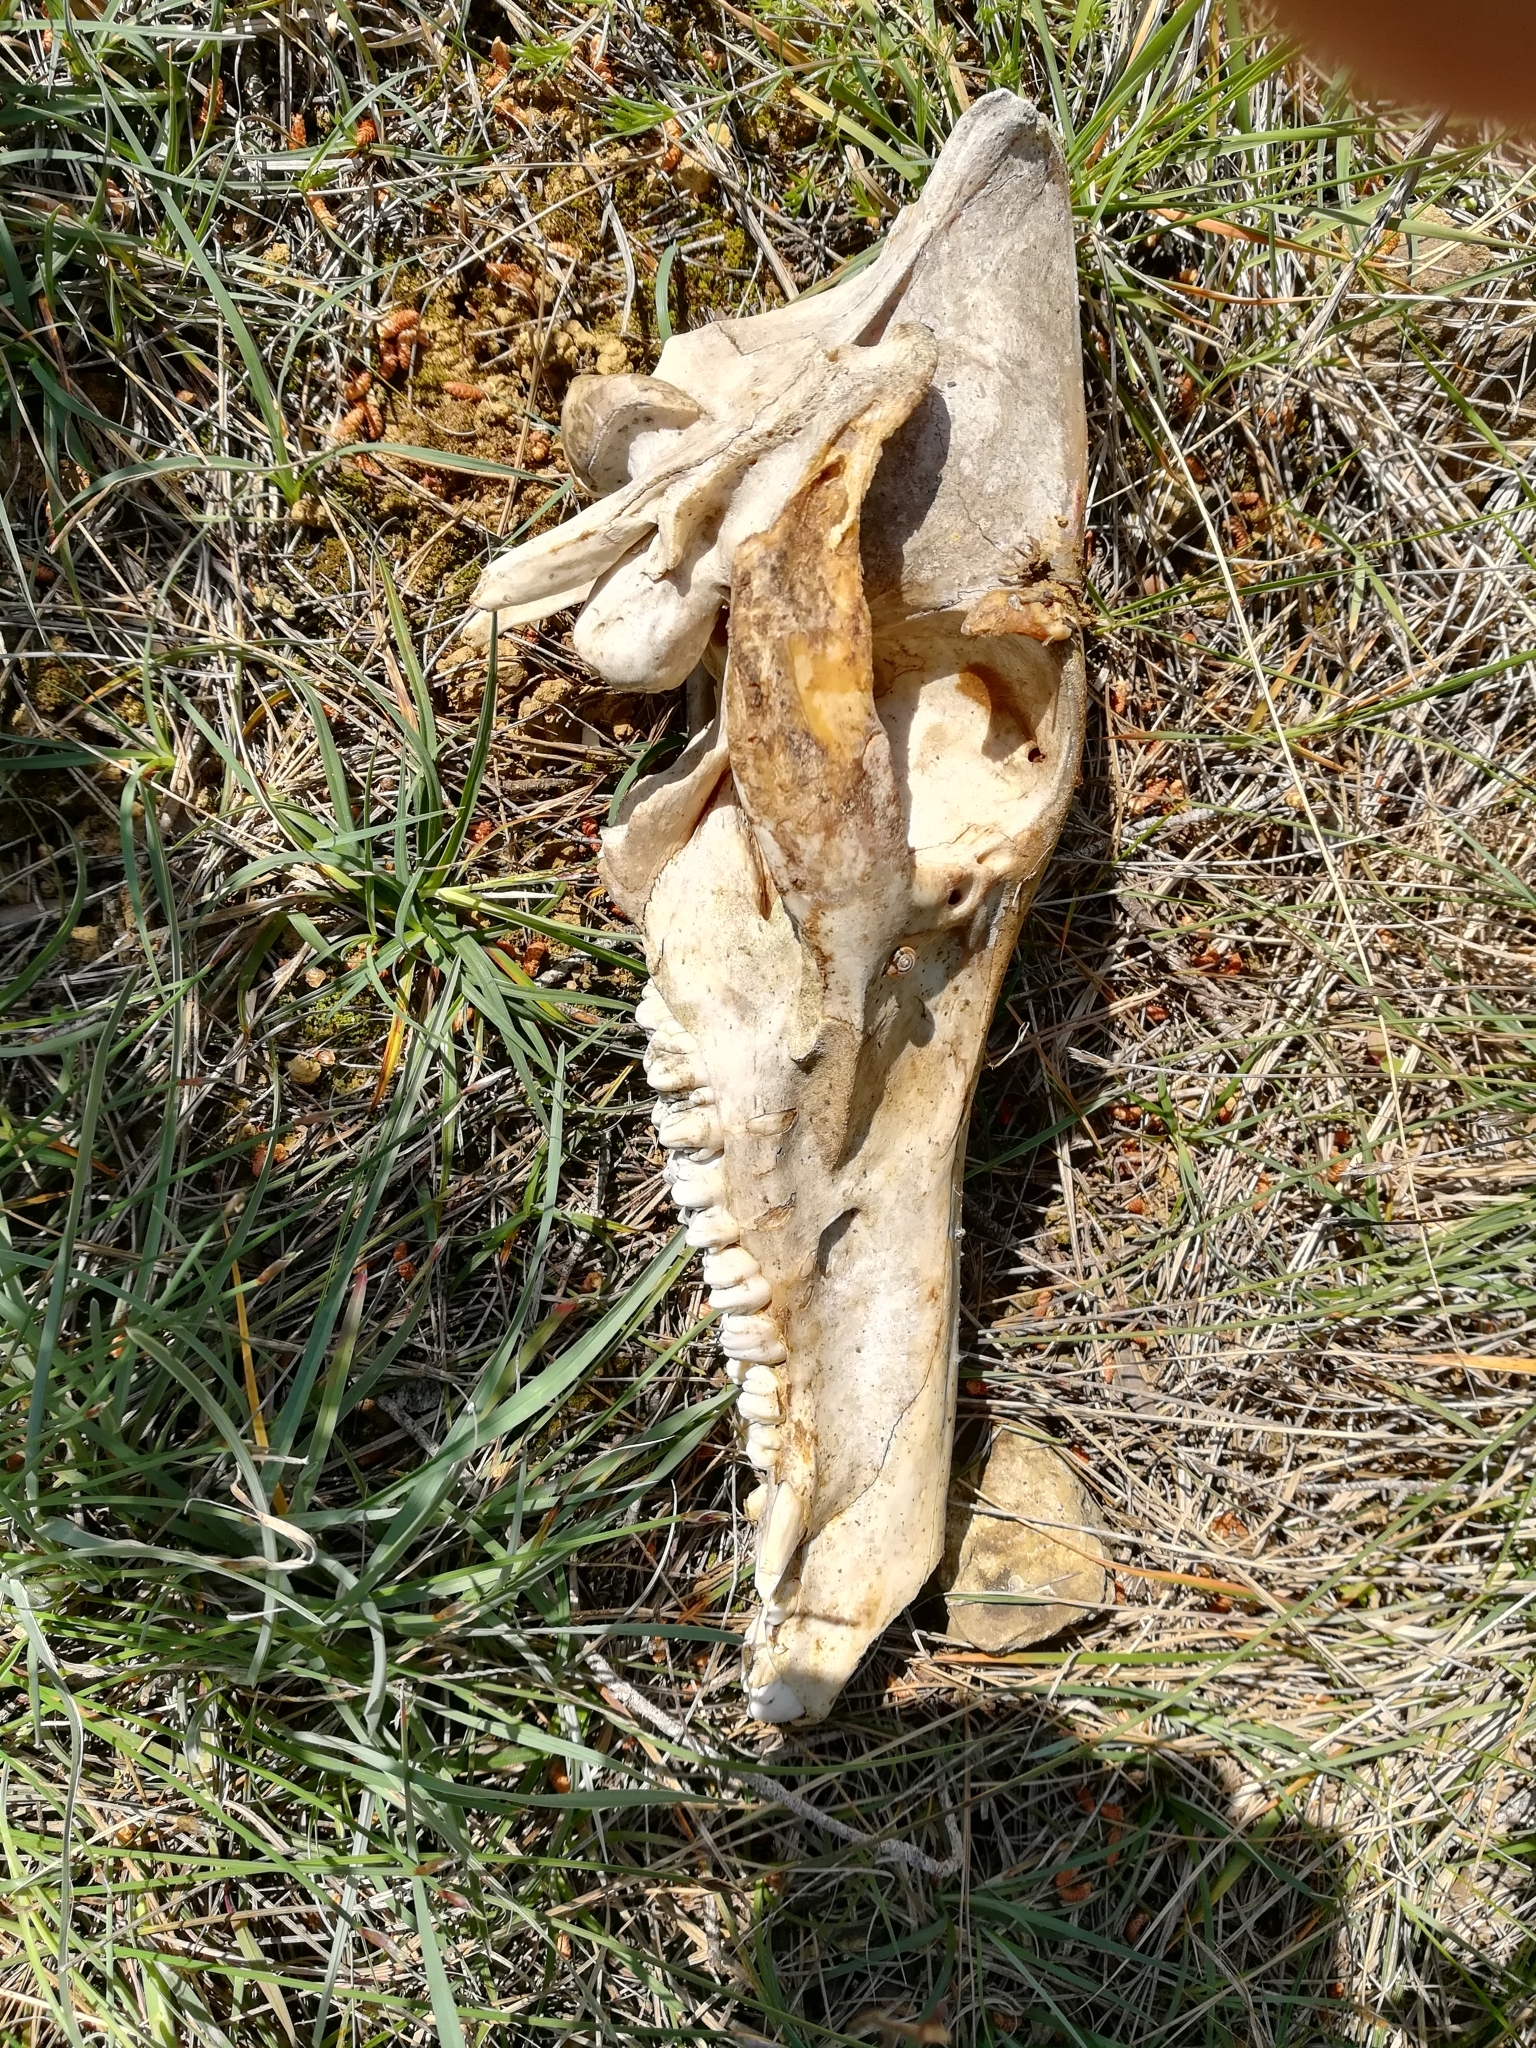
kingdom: Animalia
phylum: Chordata
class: Mammalia
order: Artiodactyla
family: Suidae
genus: Sus
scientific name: Sus scrofa
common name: Wild boar
